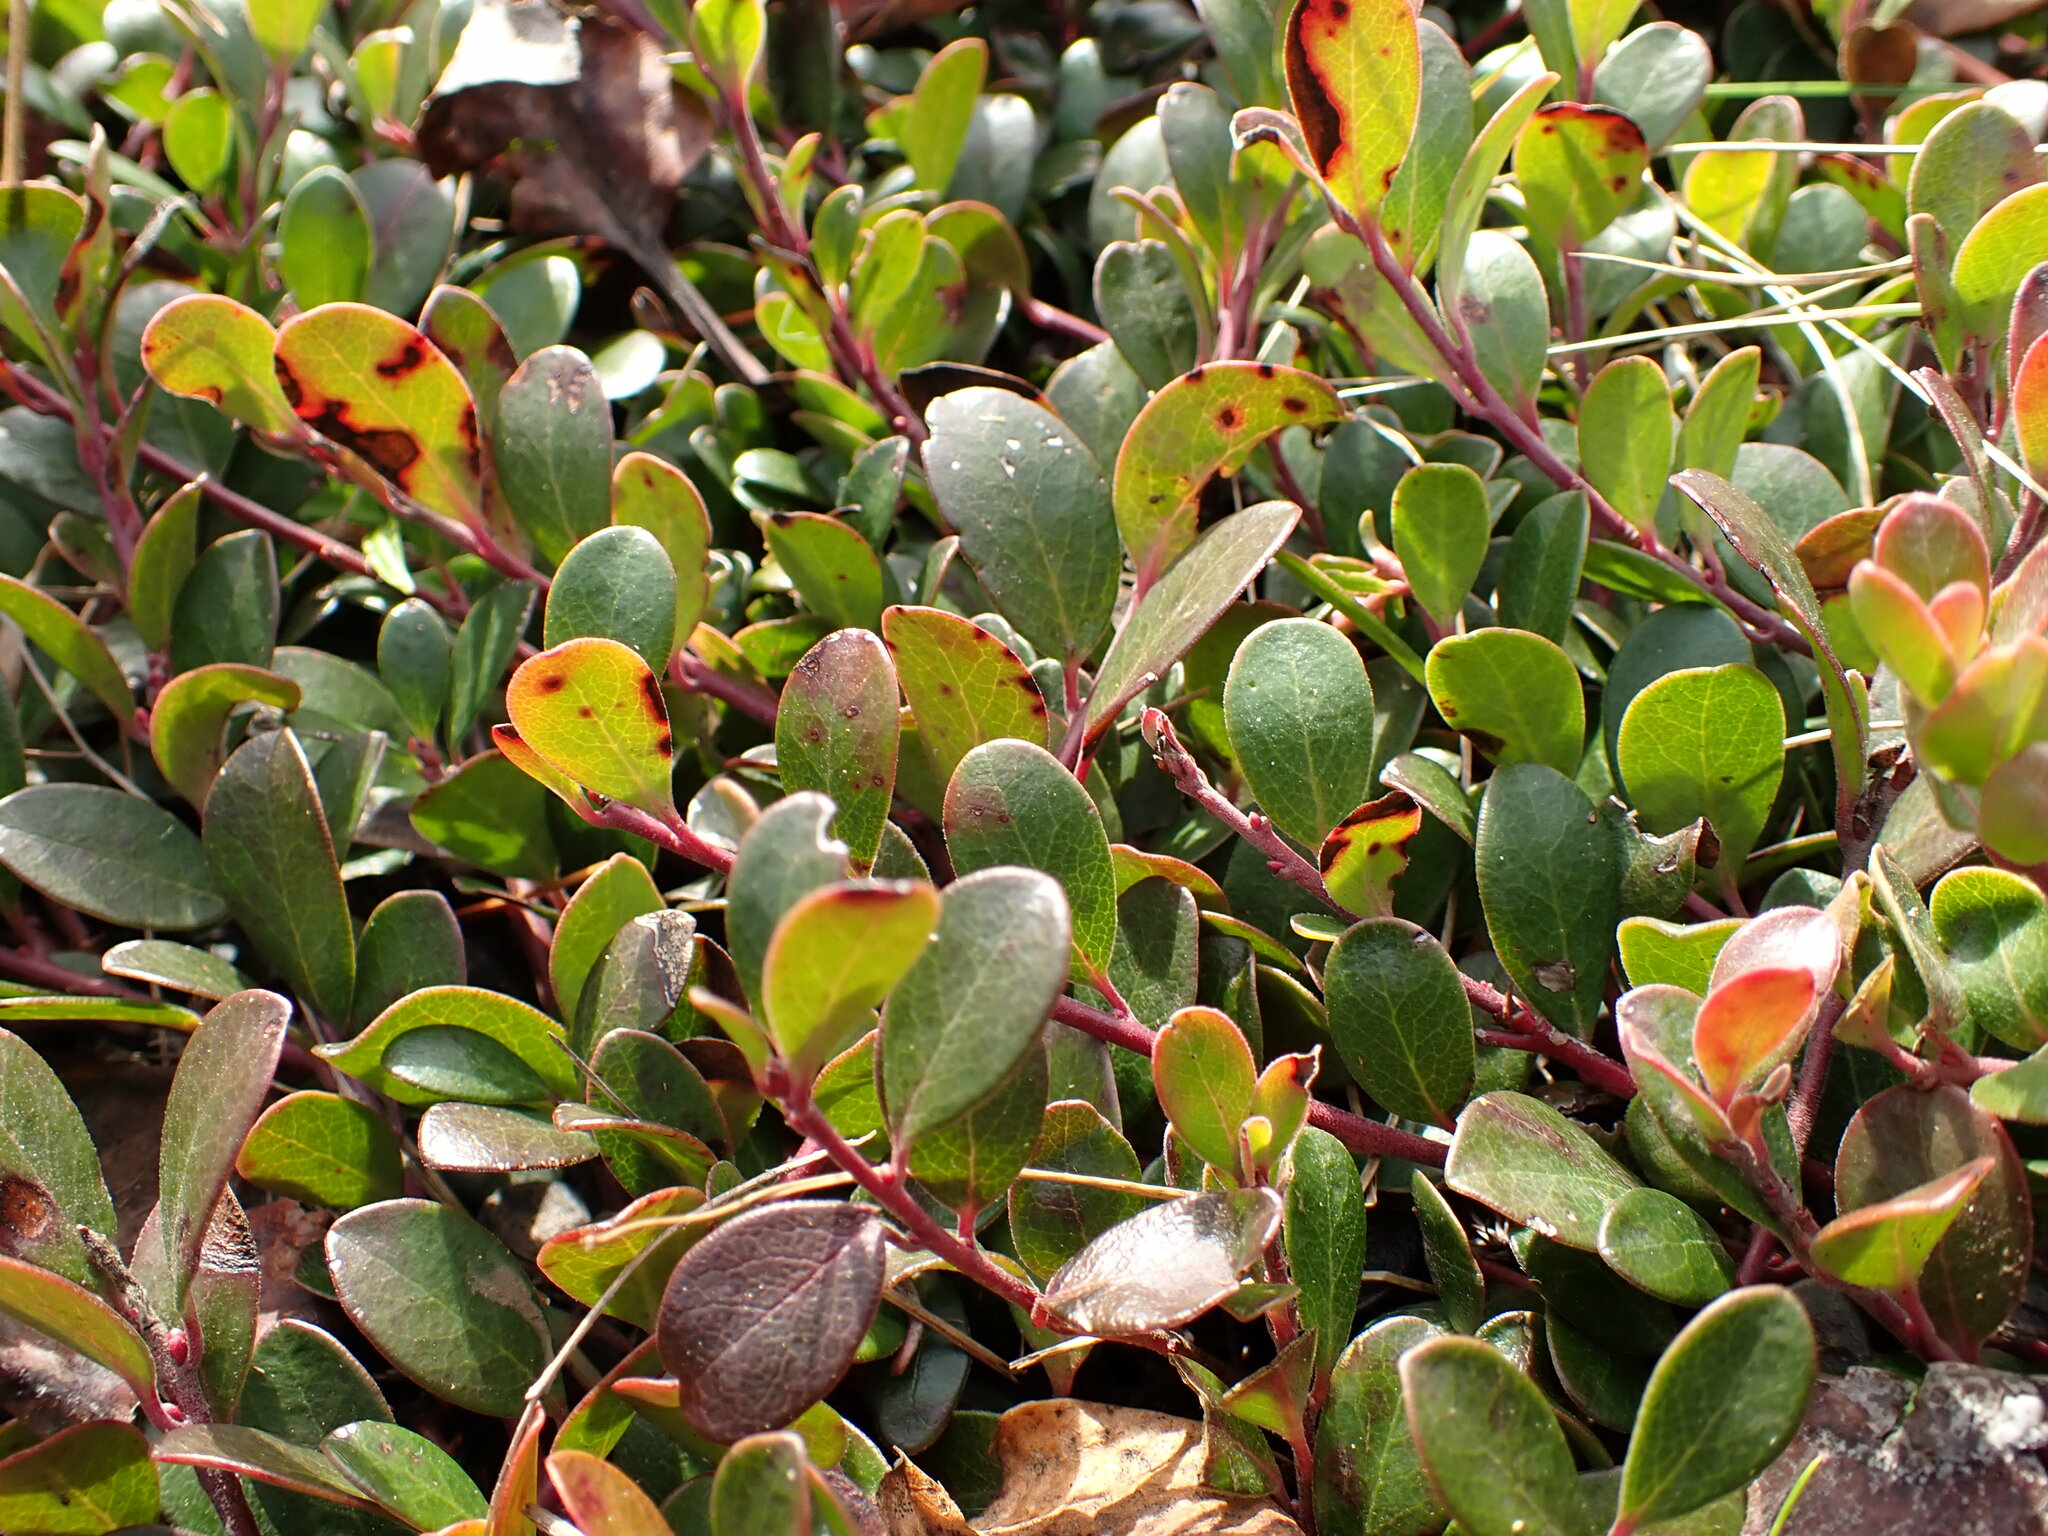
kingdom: Plantae
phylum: Tracheophyta
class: Magnoliopsida
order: Ericales
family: Ericaceae
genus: Arctostaphylos
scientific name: Arctostaphylos uva-ursi
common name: Bearberry
